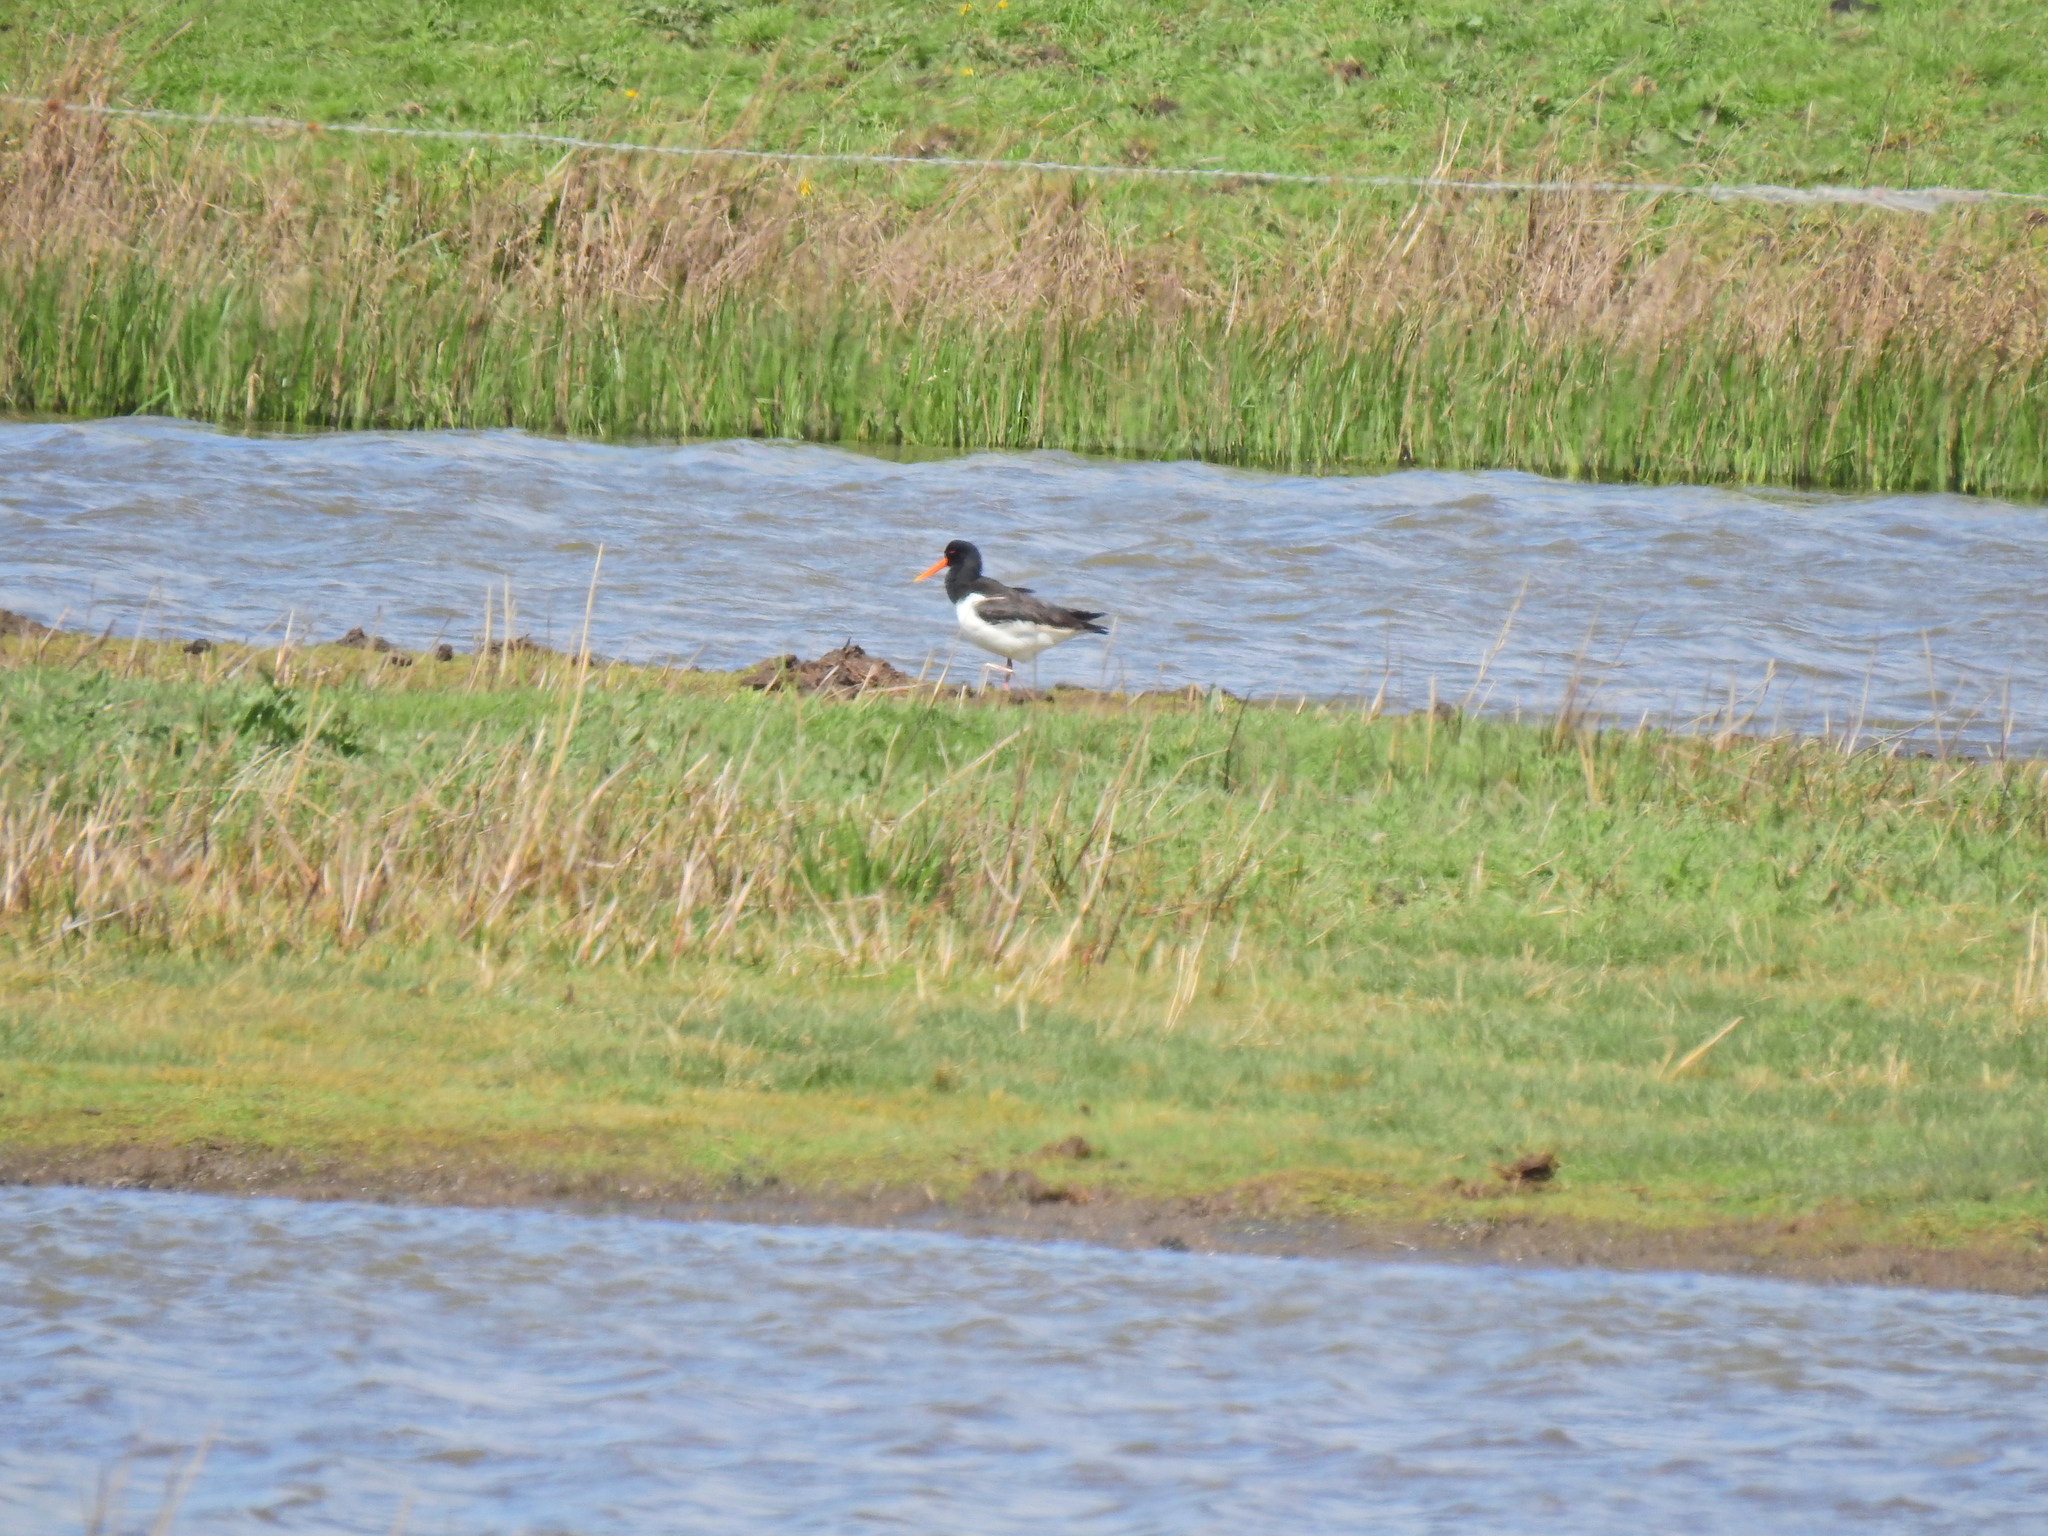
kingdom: Animalia
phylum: Chordata
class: Aves
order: Charadriiformes
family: Haematopodidae
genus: Haematopus
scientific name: Haematopus ostralegus
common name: Eurasian oystercatcher
